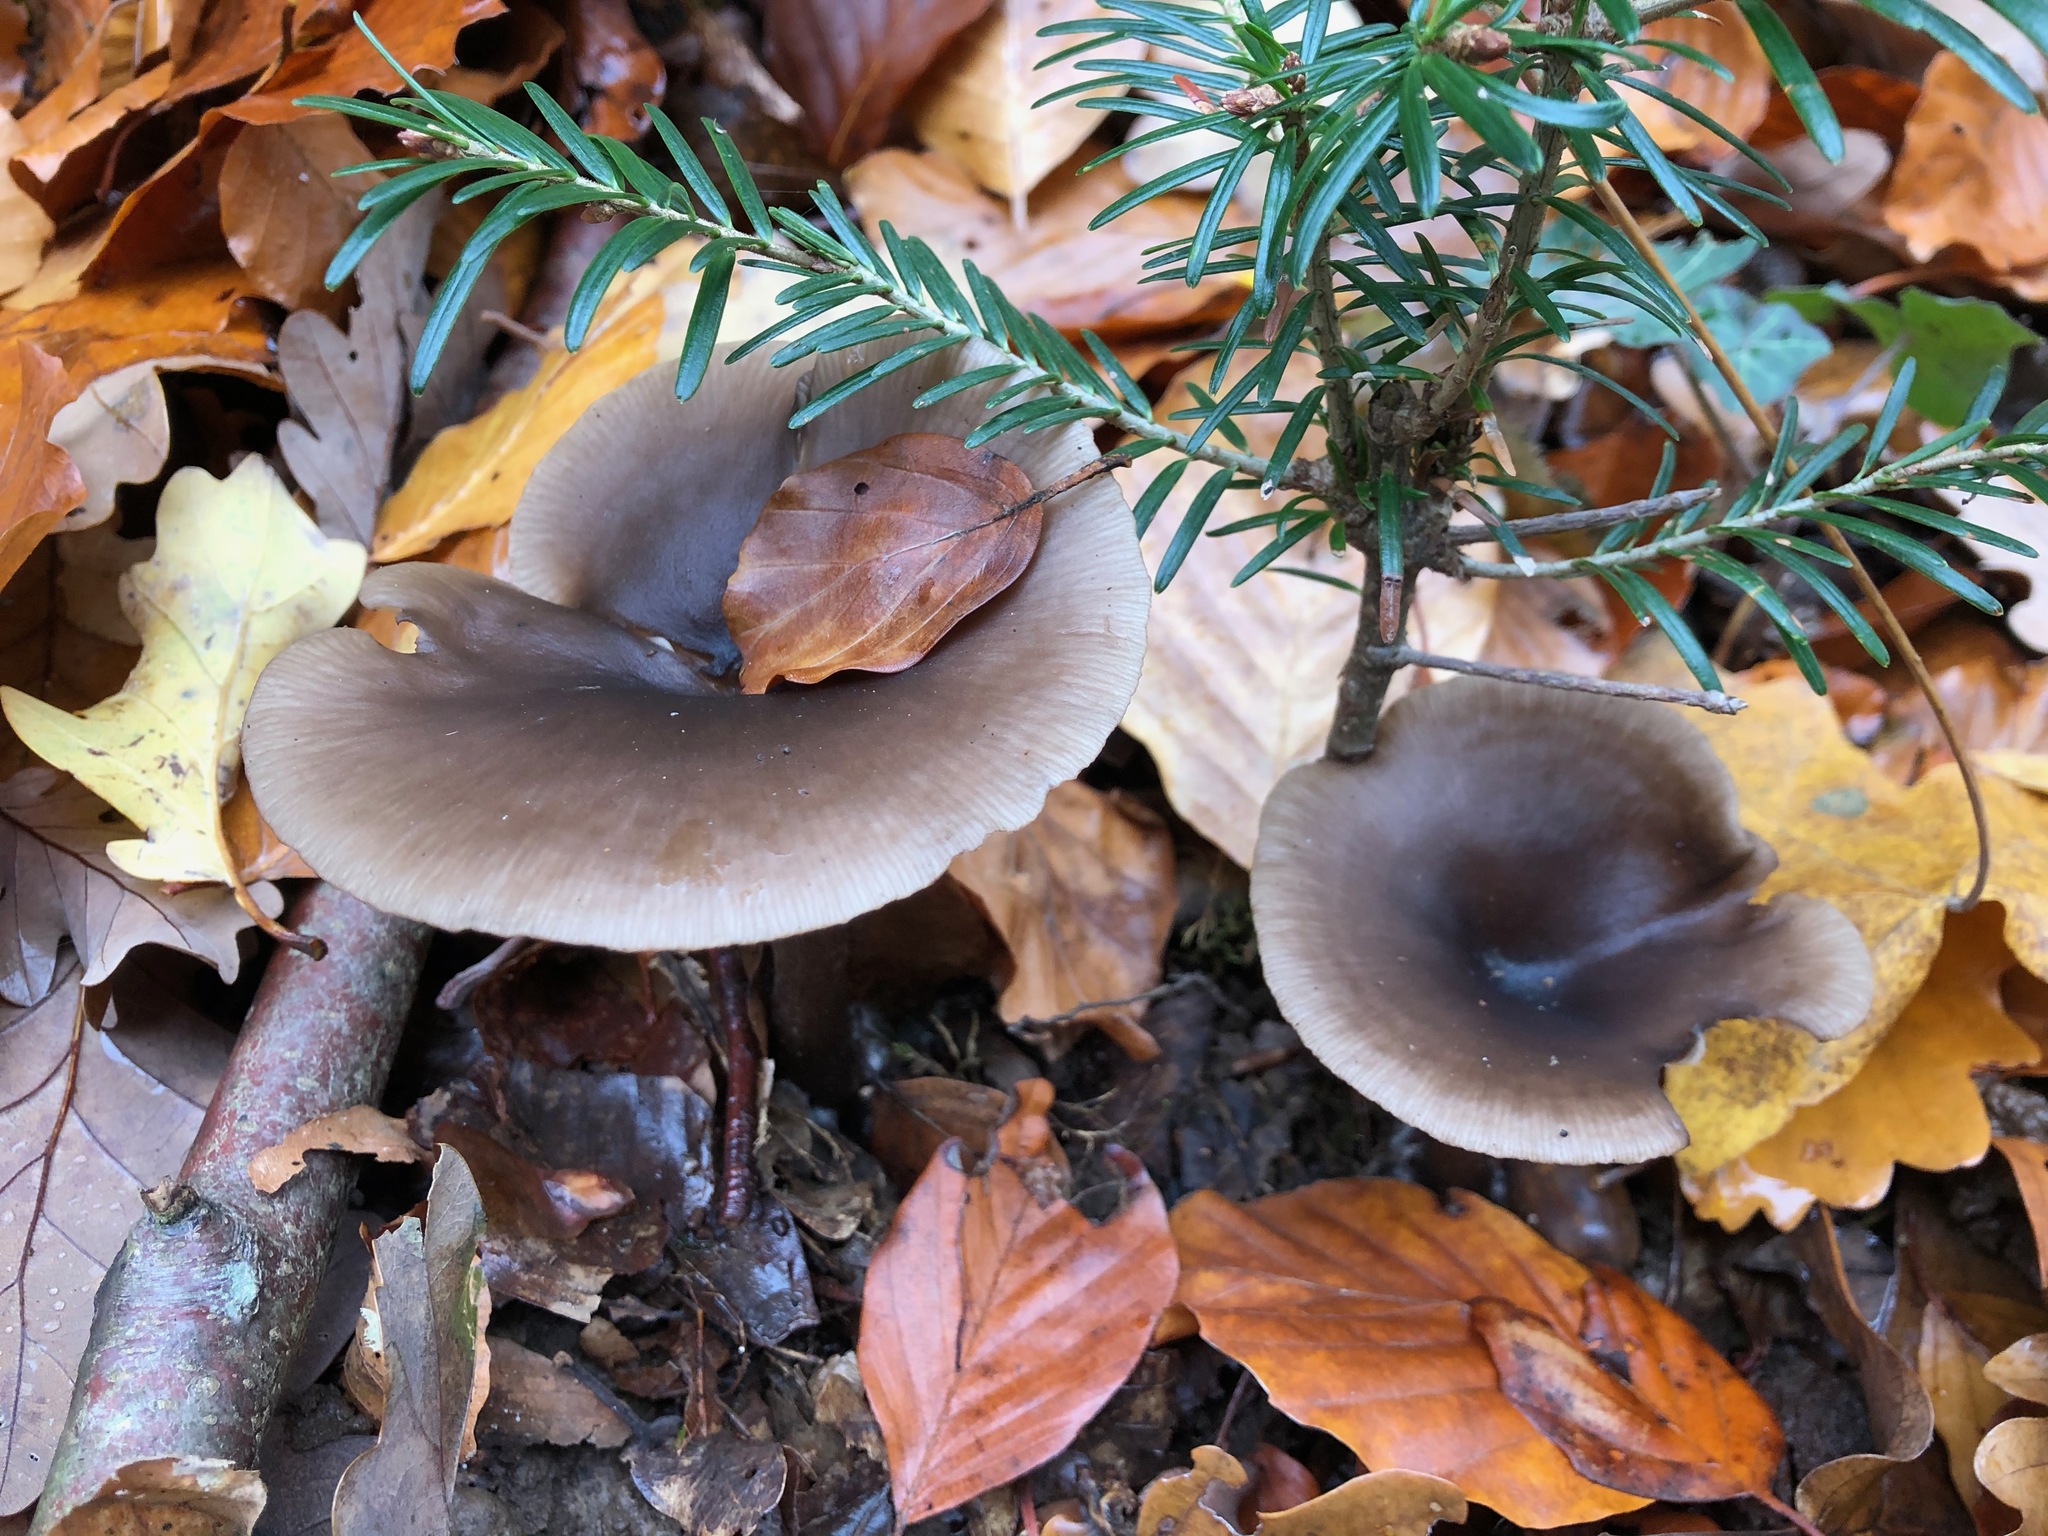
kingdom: Fungi
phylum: Basidiomycota
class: Agaricomycetes
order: Agaricales
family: Pseudoclitocybaceae
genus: Pseudoclitocybe
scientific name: Pseudoclitocybe cyathiformis
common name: Goblet
